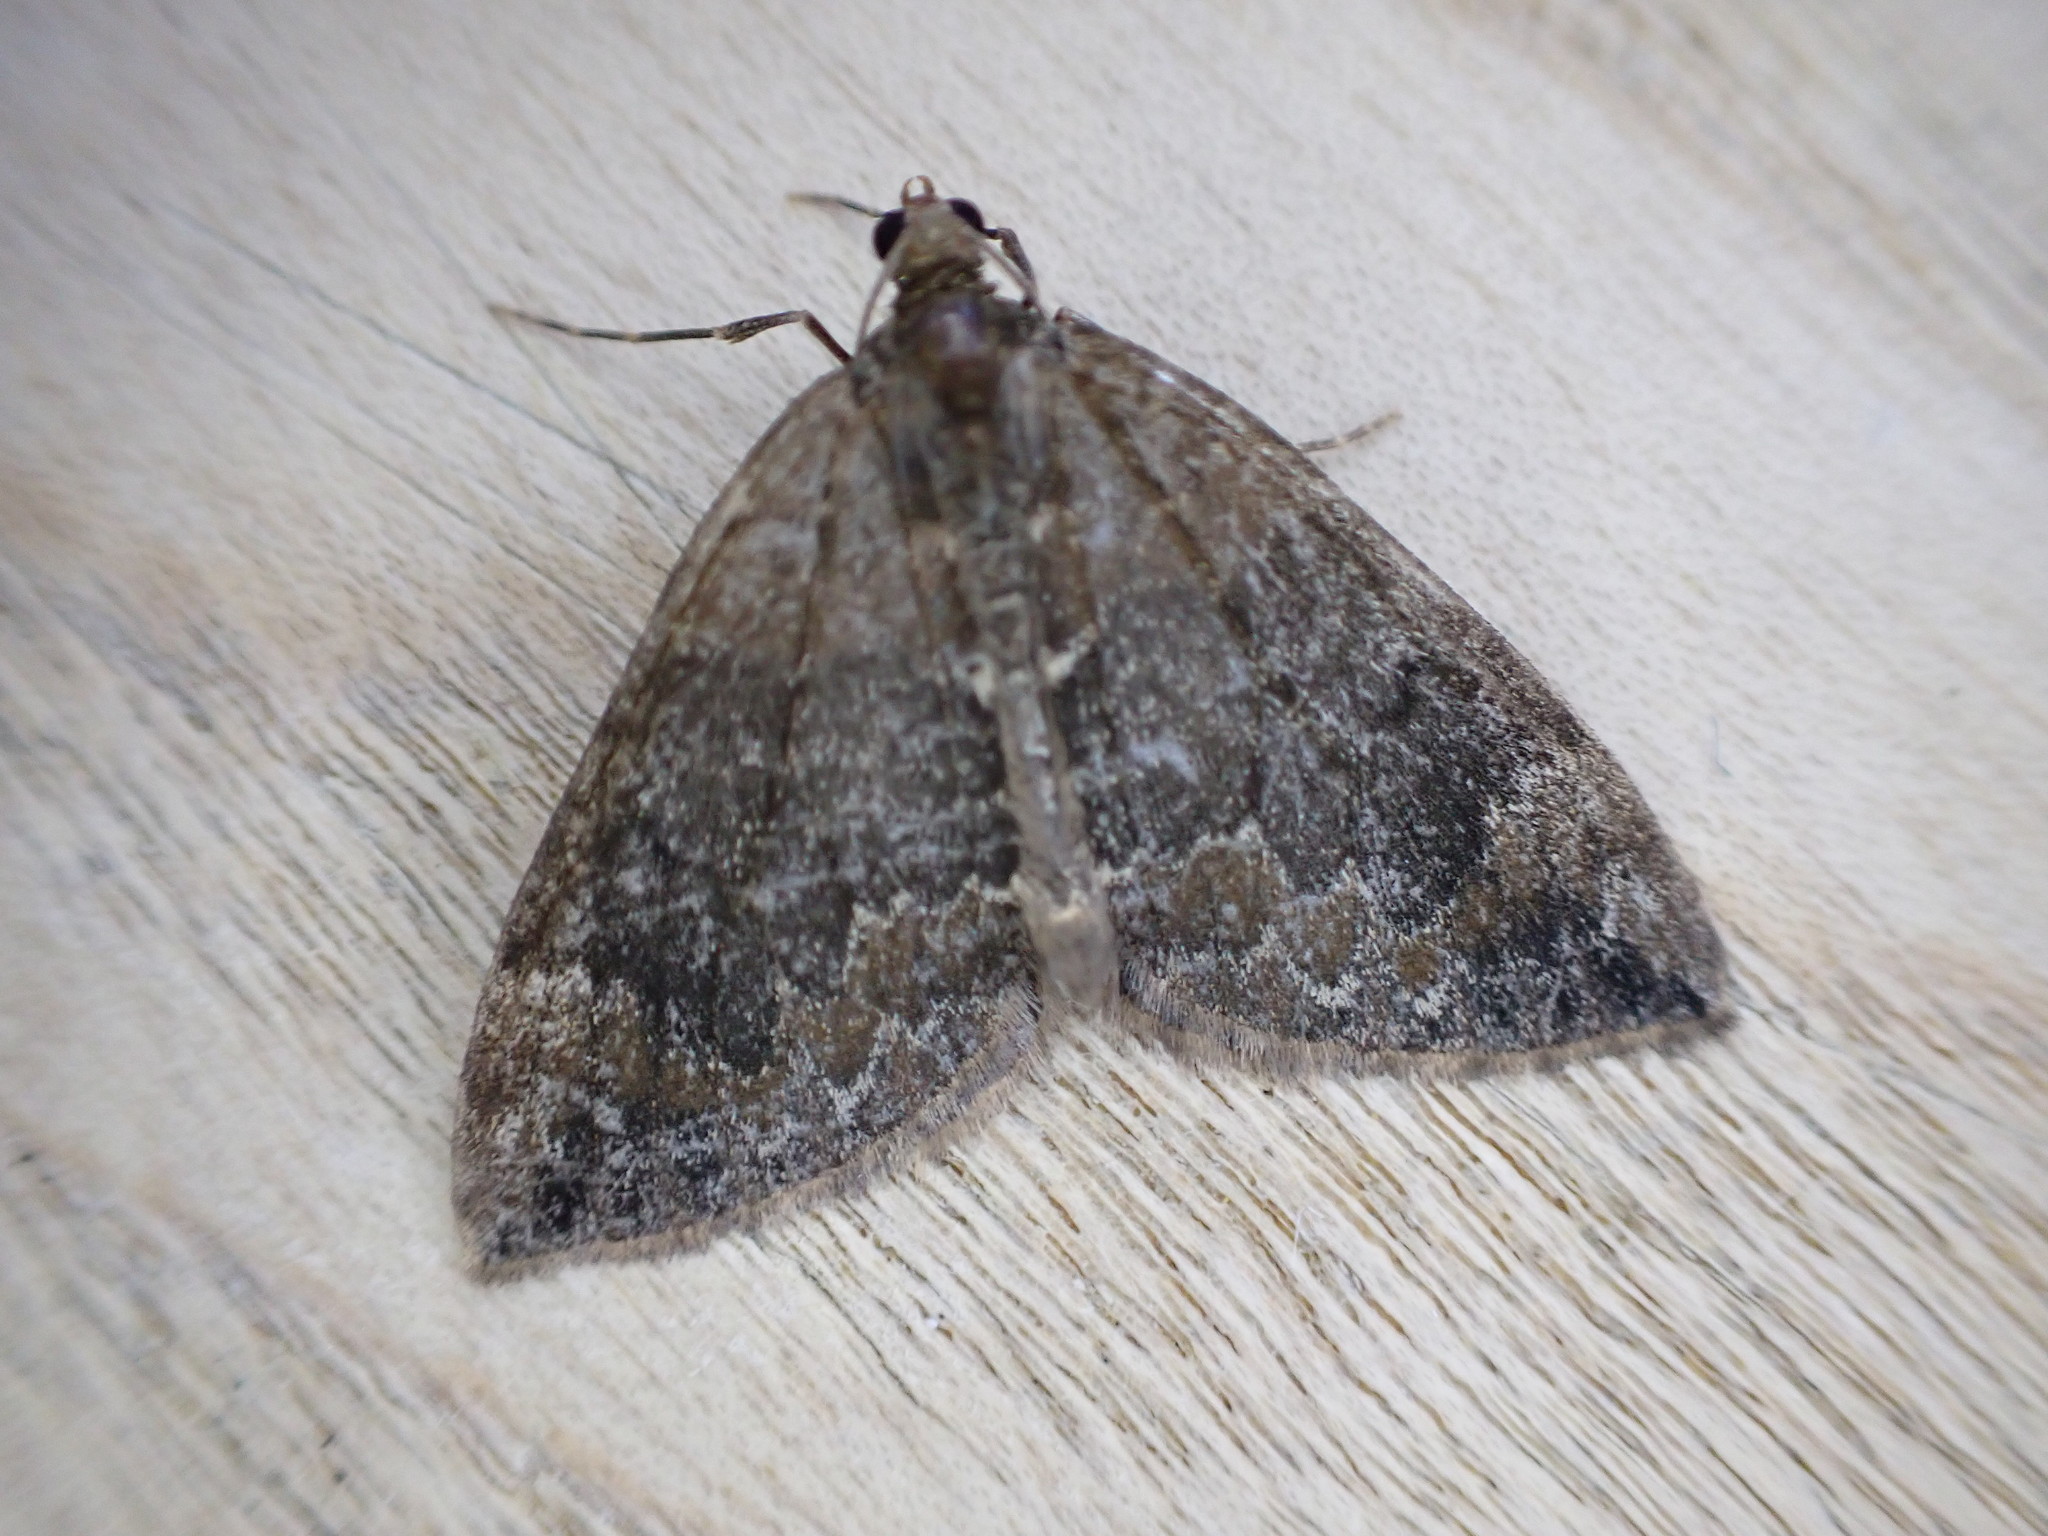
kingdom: Animalia
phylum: Arthropoda
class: Insecta
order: Lepidoptera
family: Geometridae
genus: Dysstroma
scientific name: Dysstroma truncata
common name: Common marbled carpet
